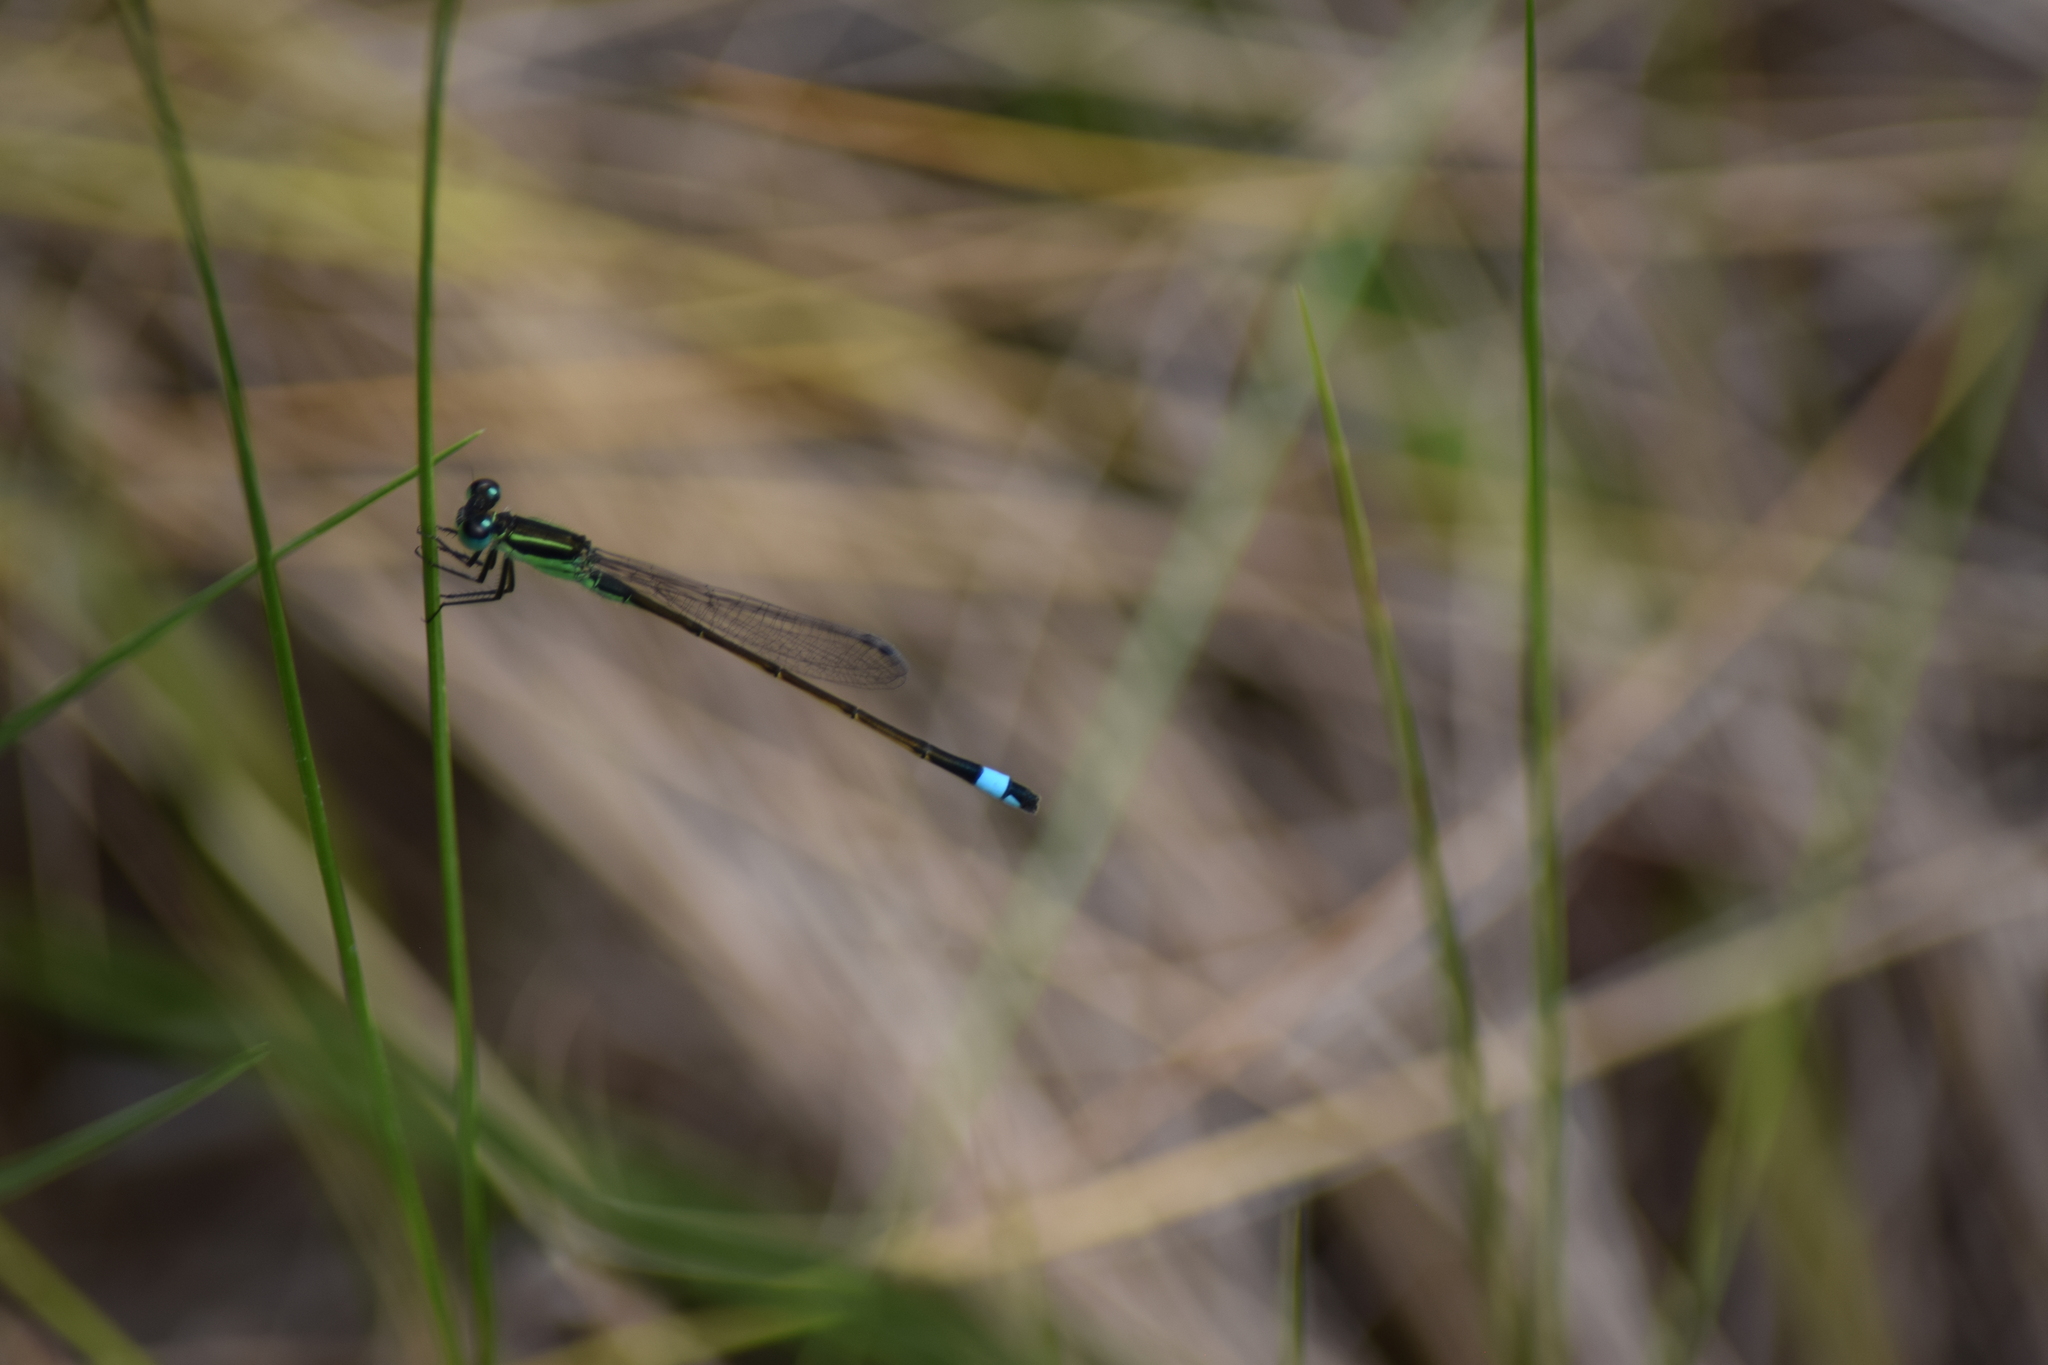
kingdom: Animalia
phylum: Arthropoda
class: Insecta
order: Odonata
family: Coenagrionidae
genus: Ischnura
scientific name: Ischnura ramburii
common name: Rambur's forktail
